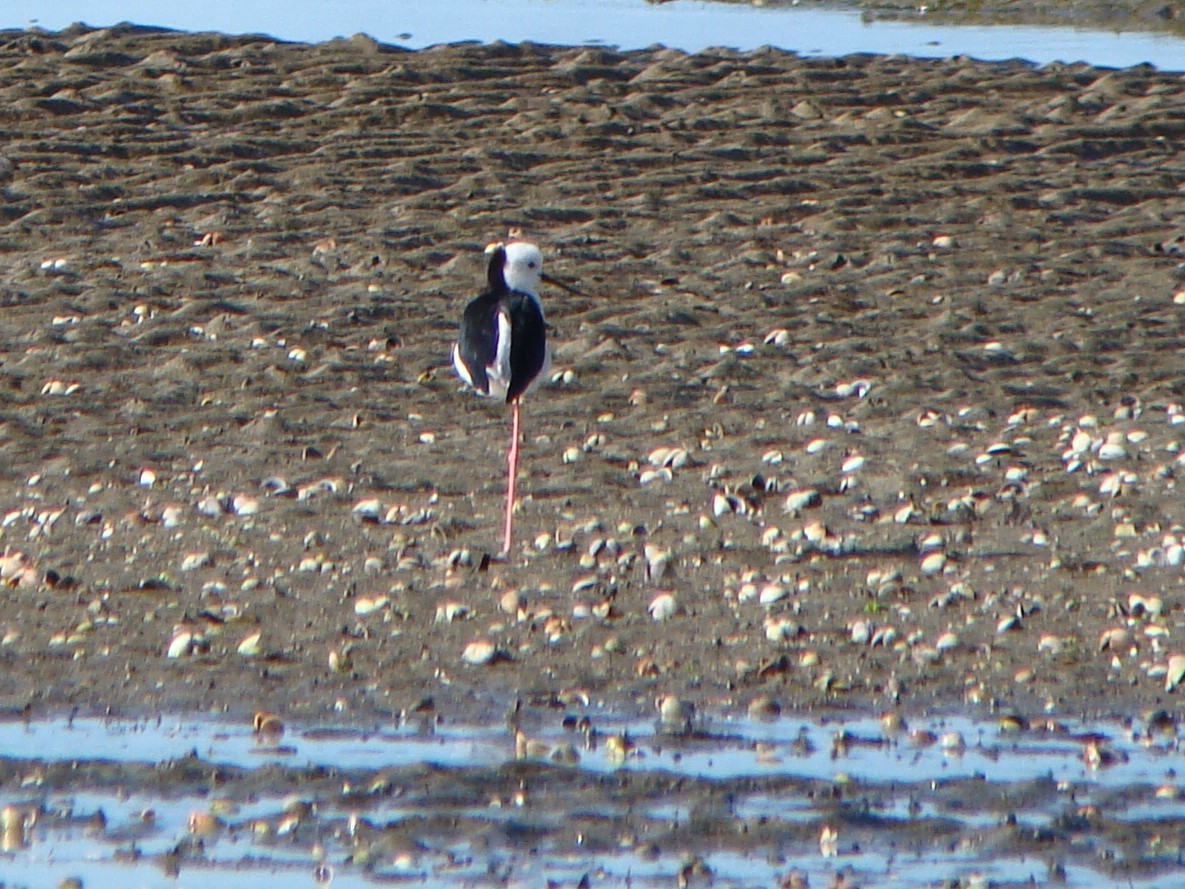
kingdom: Animalia
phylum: Chordata
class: Aves
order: Charadriiformes
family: Recurvirostridae
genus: Himantopus
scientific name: Himantopus leucocephalus
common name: White-headed stilt
